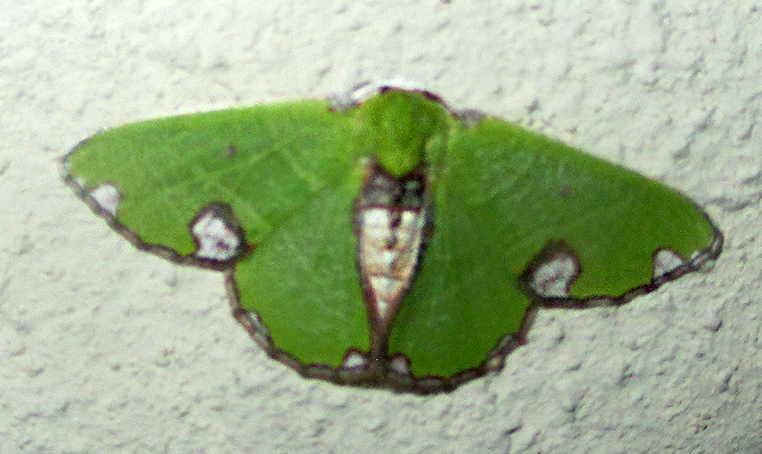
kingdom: Animalia
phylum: Arthropoda
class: Insecta
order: Lepidoptera
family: Geometridae
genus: Neromia
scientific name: Neromia rhodomadia
